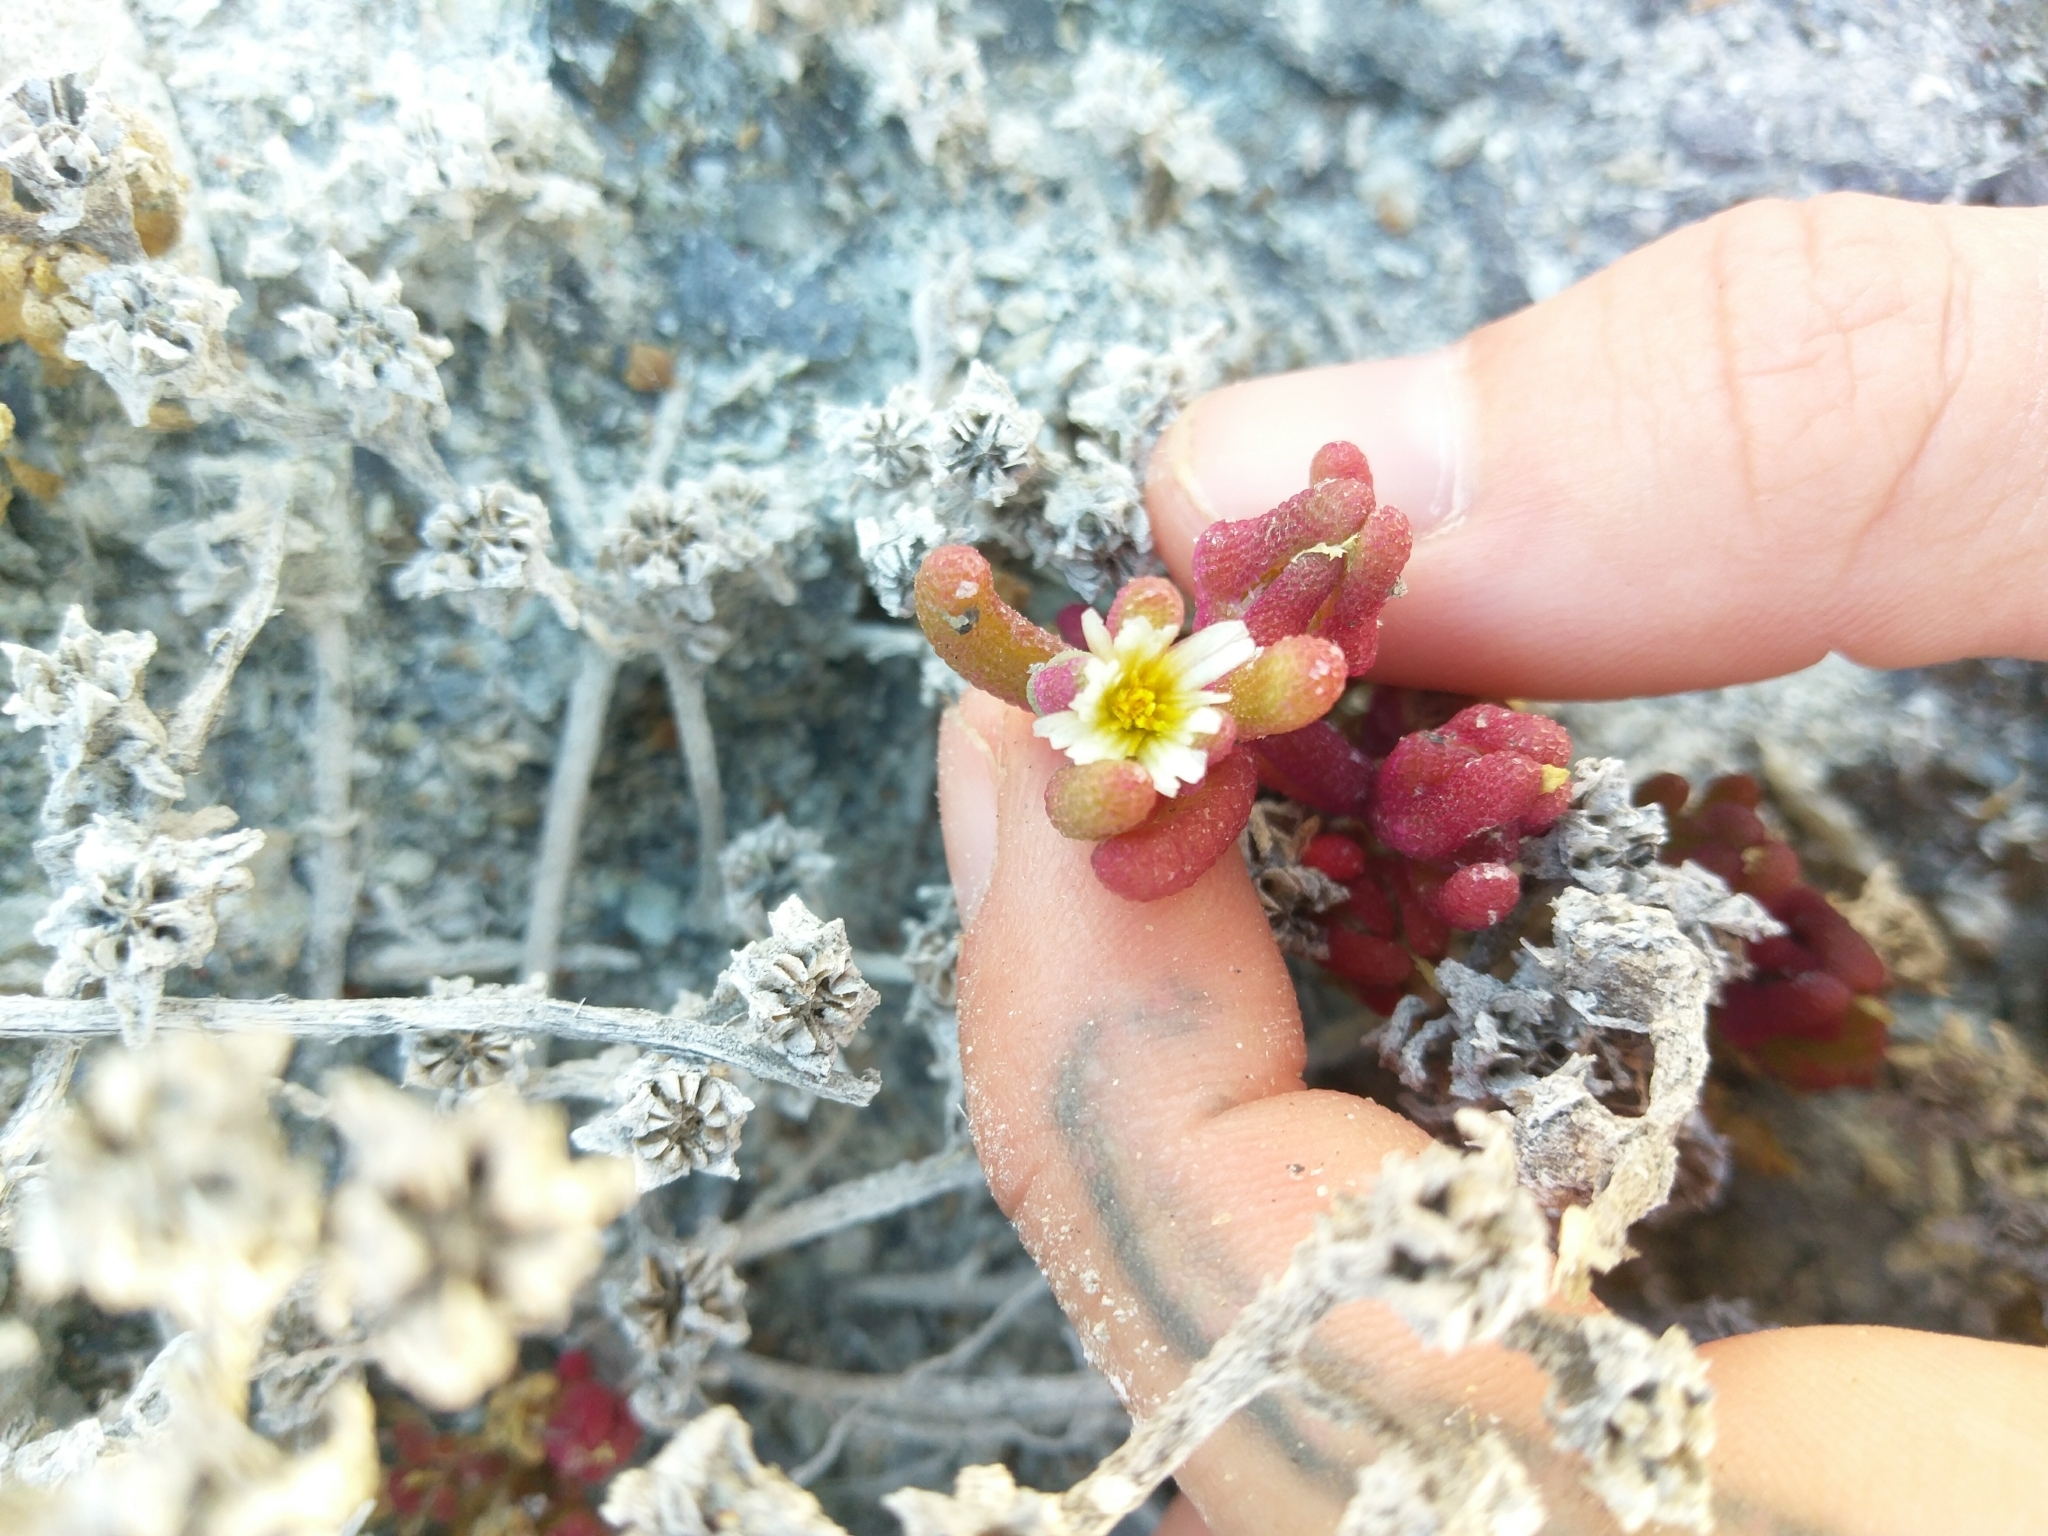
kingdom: Plantae
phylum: Tracheophyta
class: Magnoliopsida
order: Caryophyllales
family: Aizoaceae
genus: Mesembryanthemum
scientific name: Mesembryanthemum nodiflorum
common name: Slenderleaf iceplant
